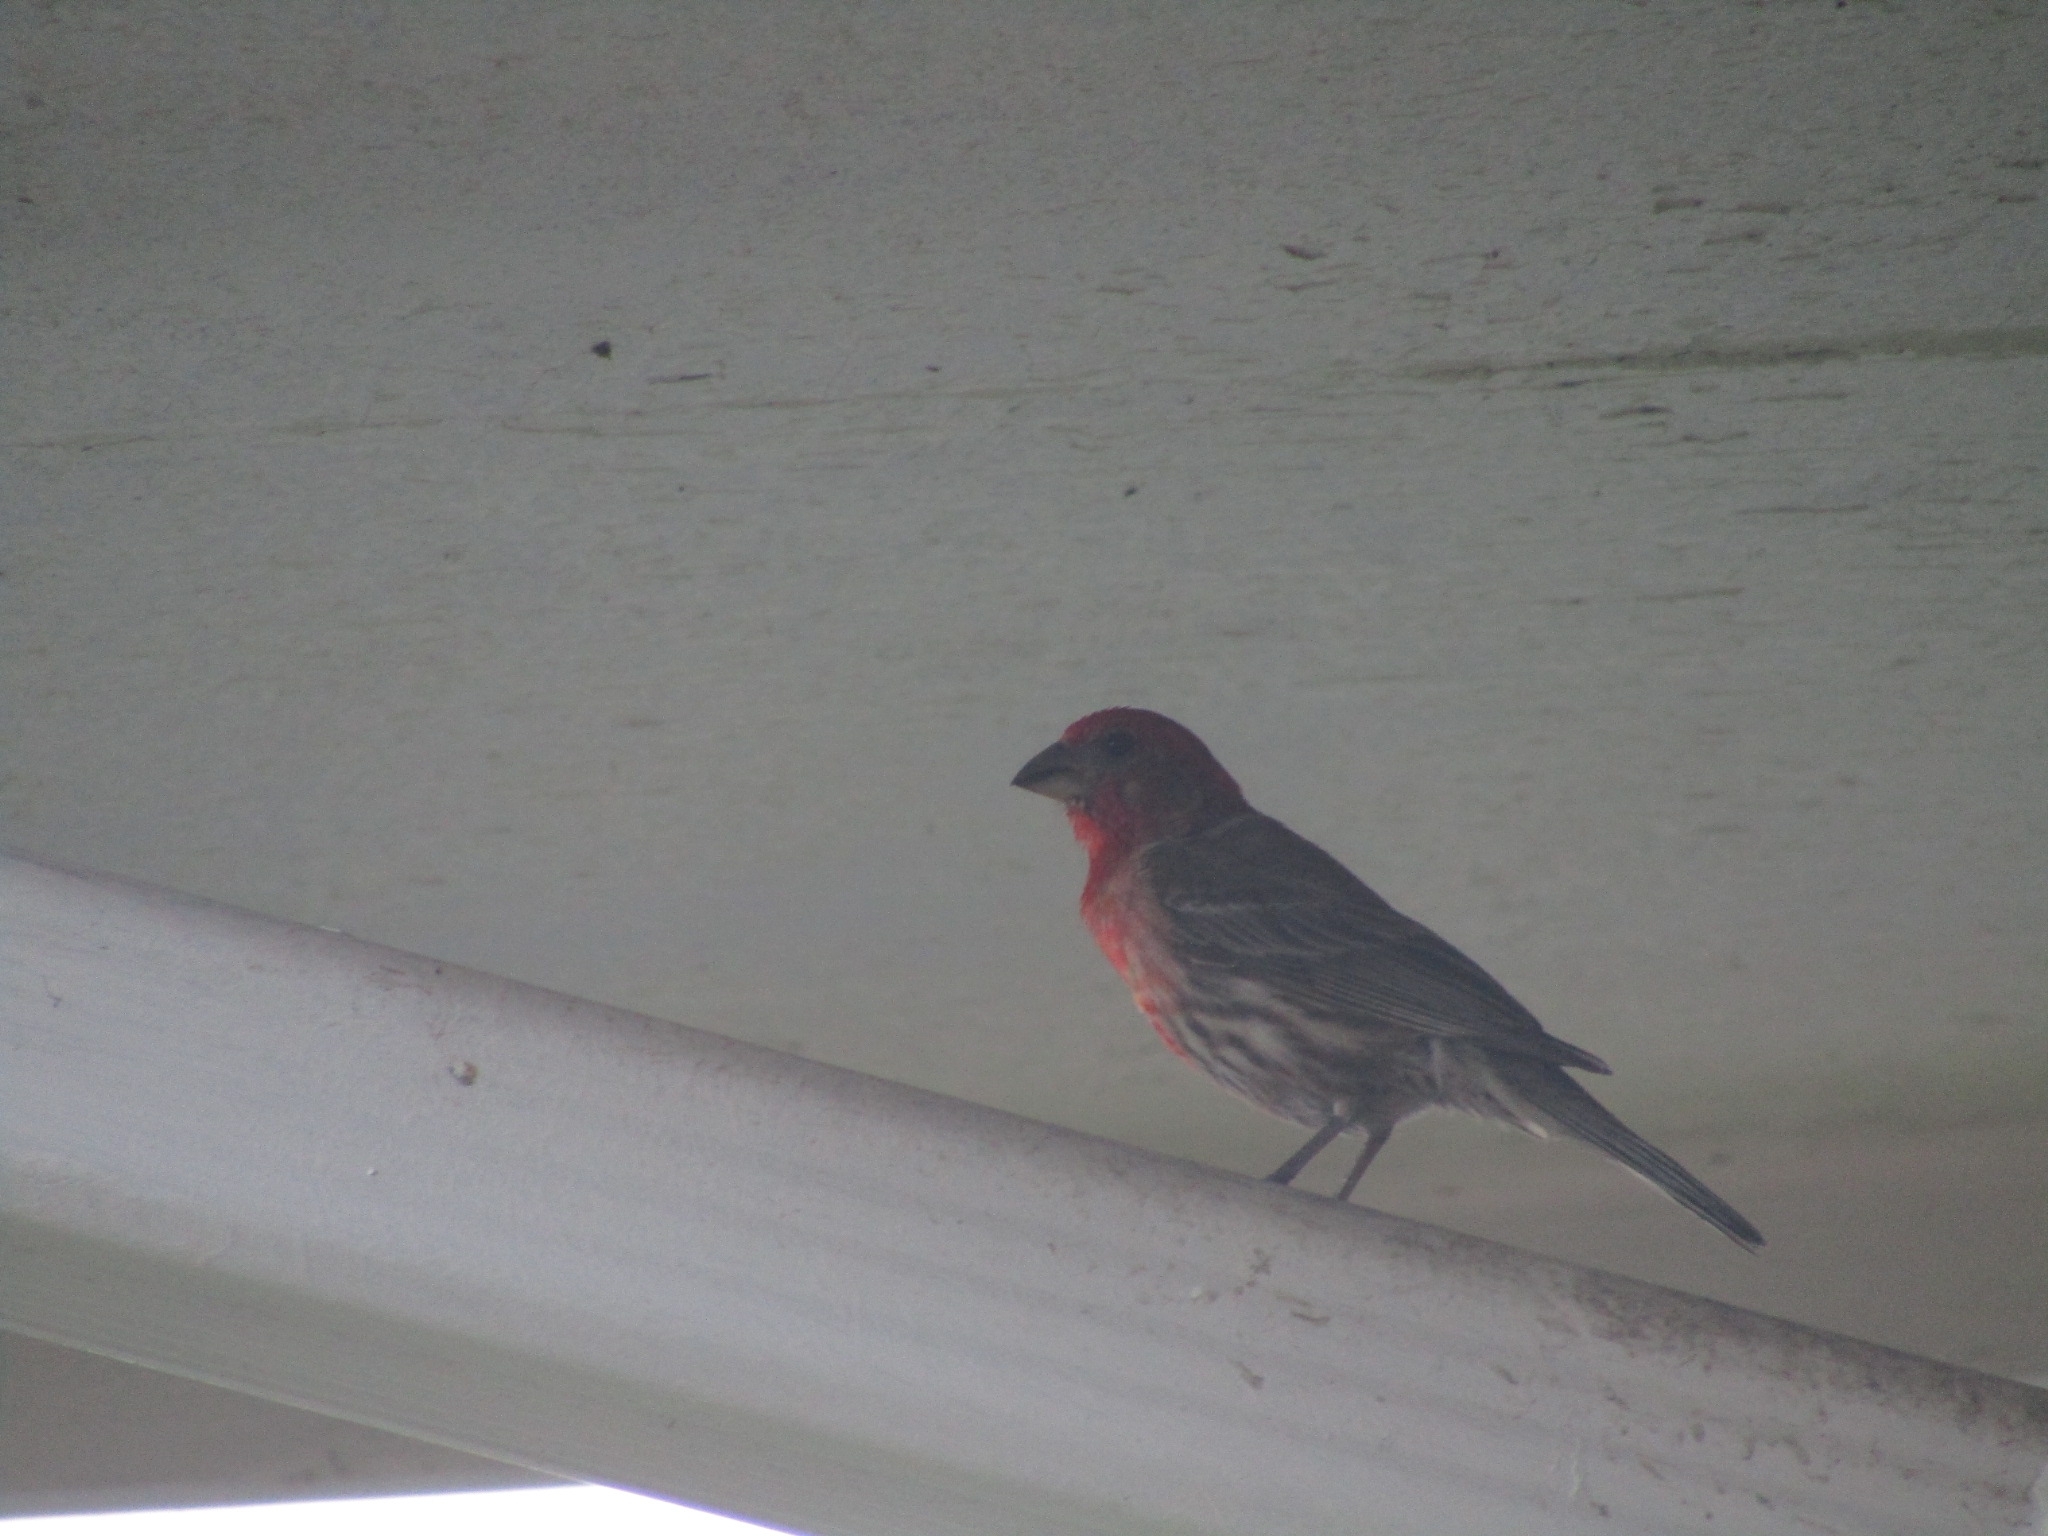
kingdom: Animalia
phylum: Chordata
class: Aves
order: Passeriformes
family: Fringillidae
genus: Haemorhous
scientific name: Haemorhous mexicanus
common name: House finch
